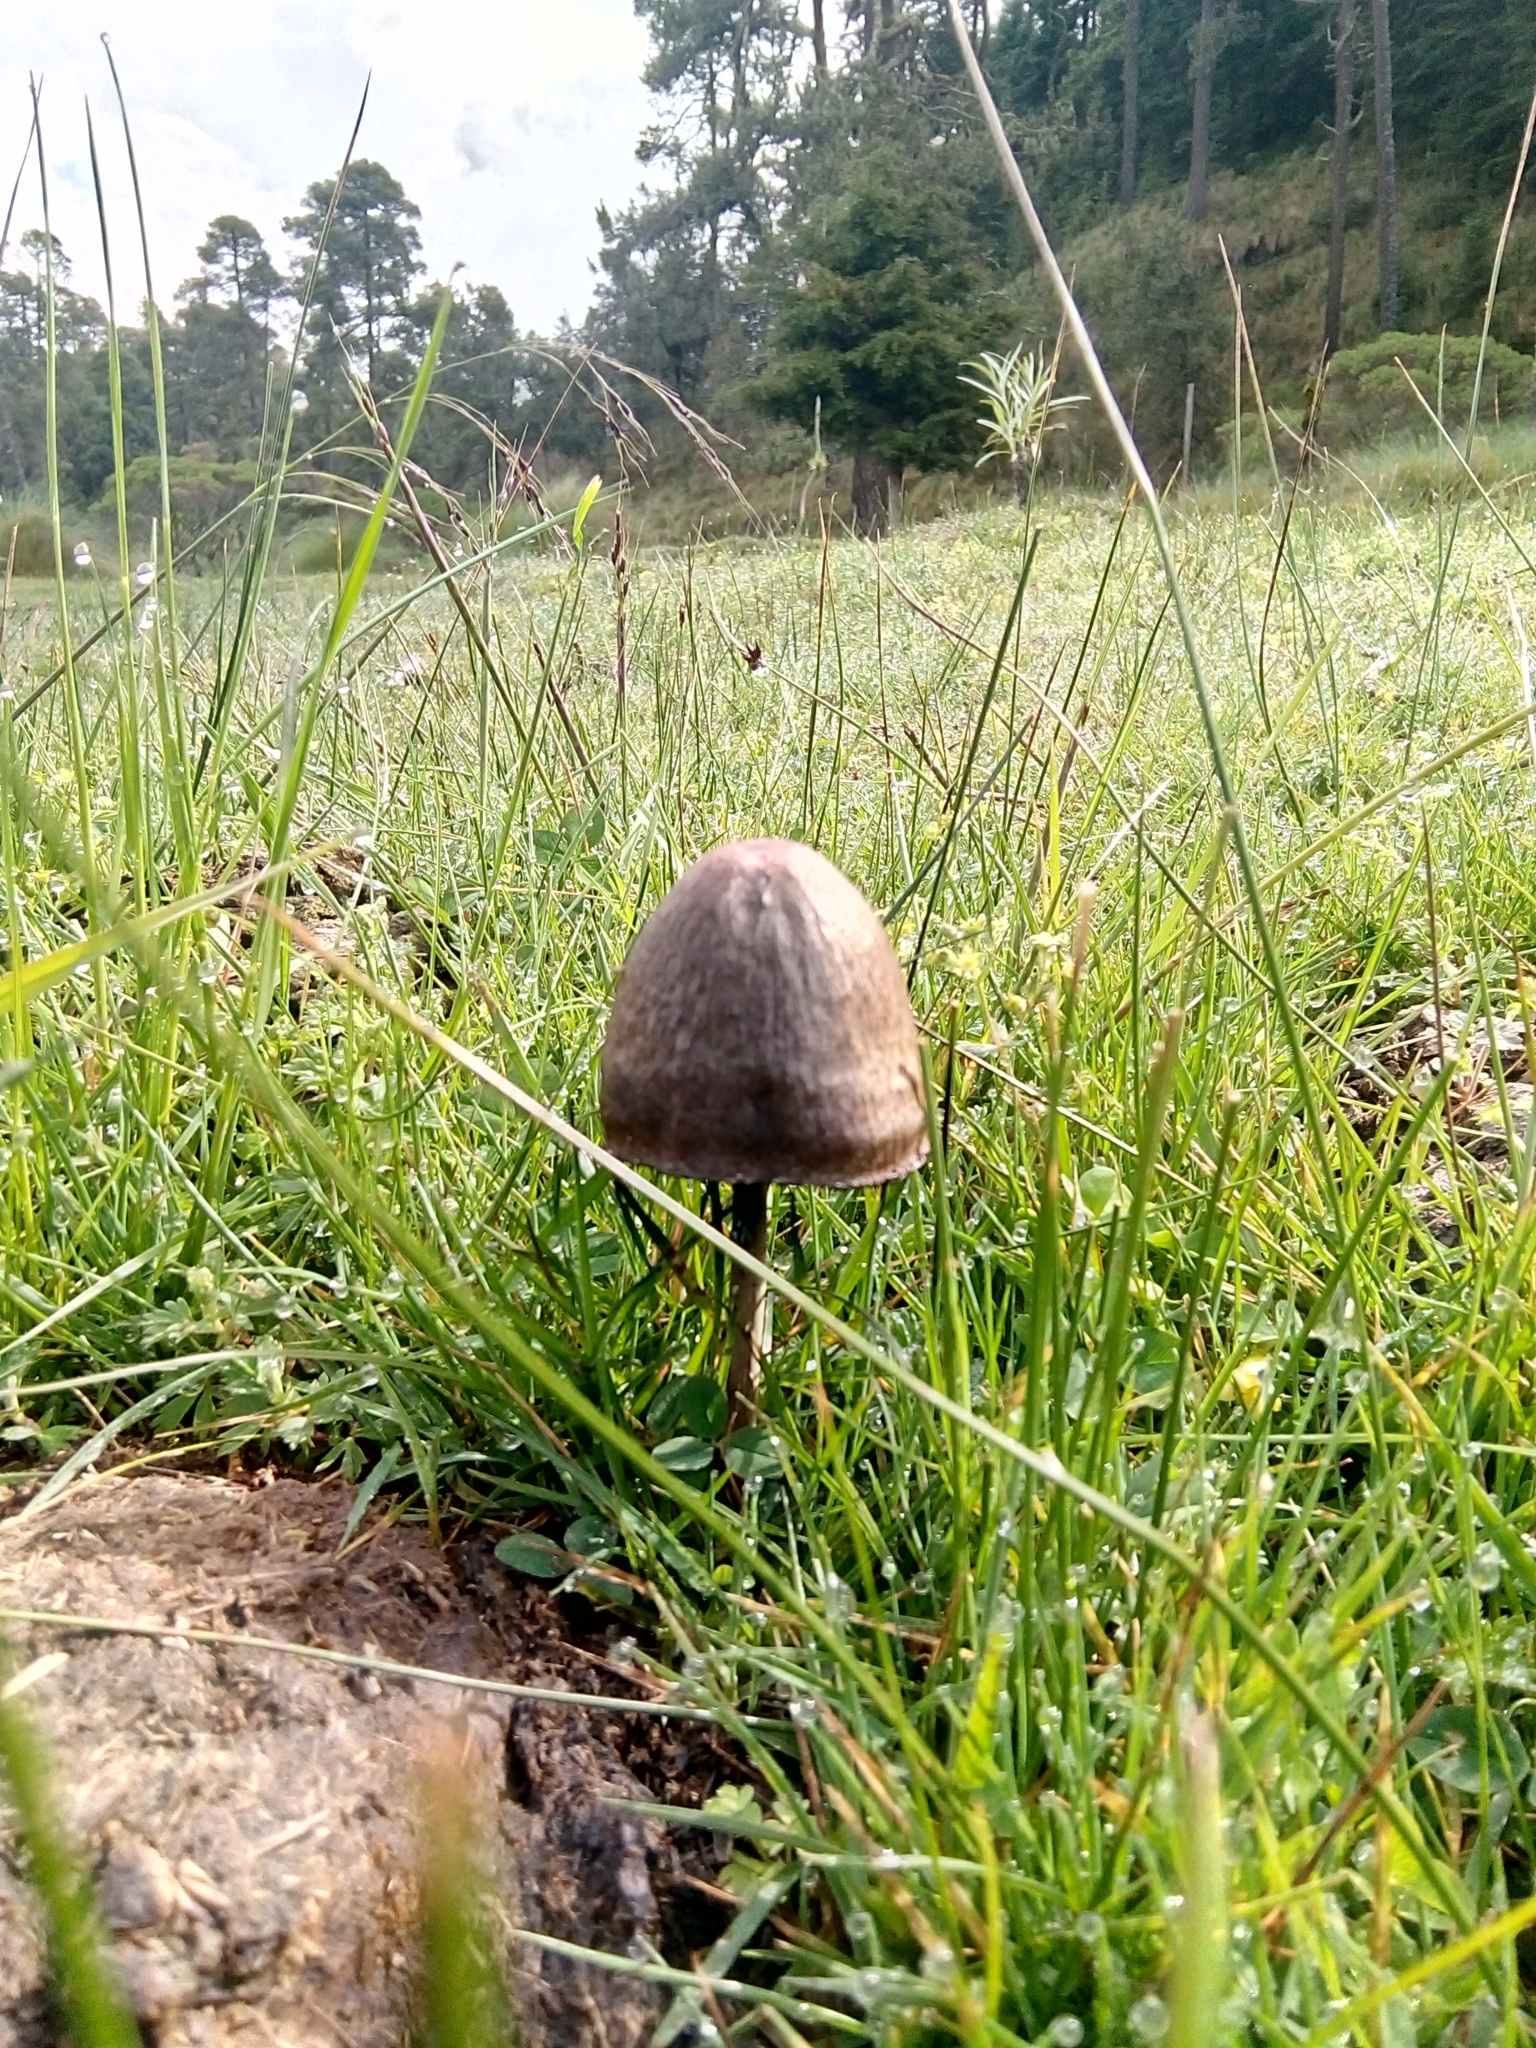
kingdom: Fungi
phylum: Basidiomycota
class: Agaricomycetes
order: Agaricales
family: Bolbitiaceae
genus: Panaeolus
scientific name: Panaeolus papilionaceus
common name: Petticoat mottlegill
